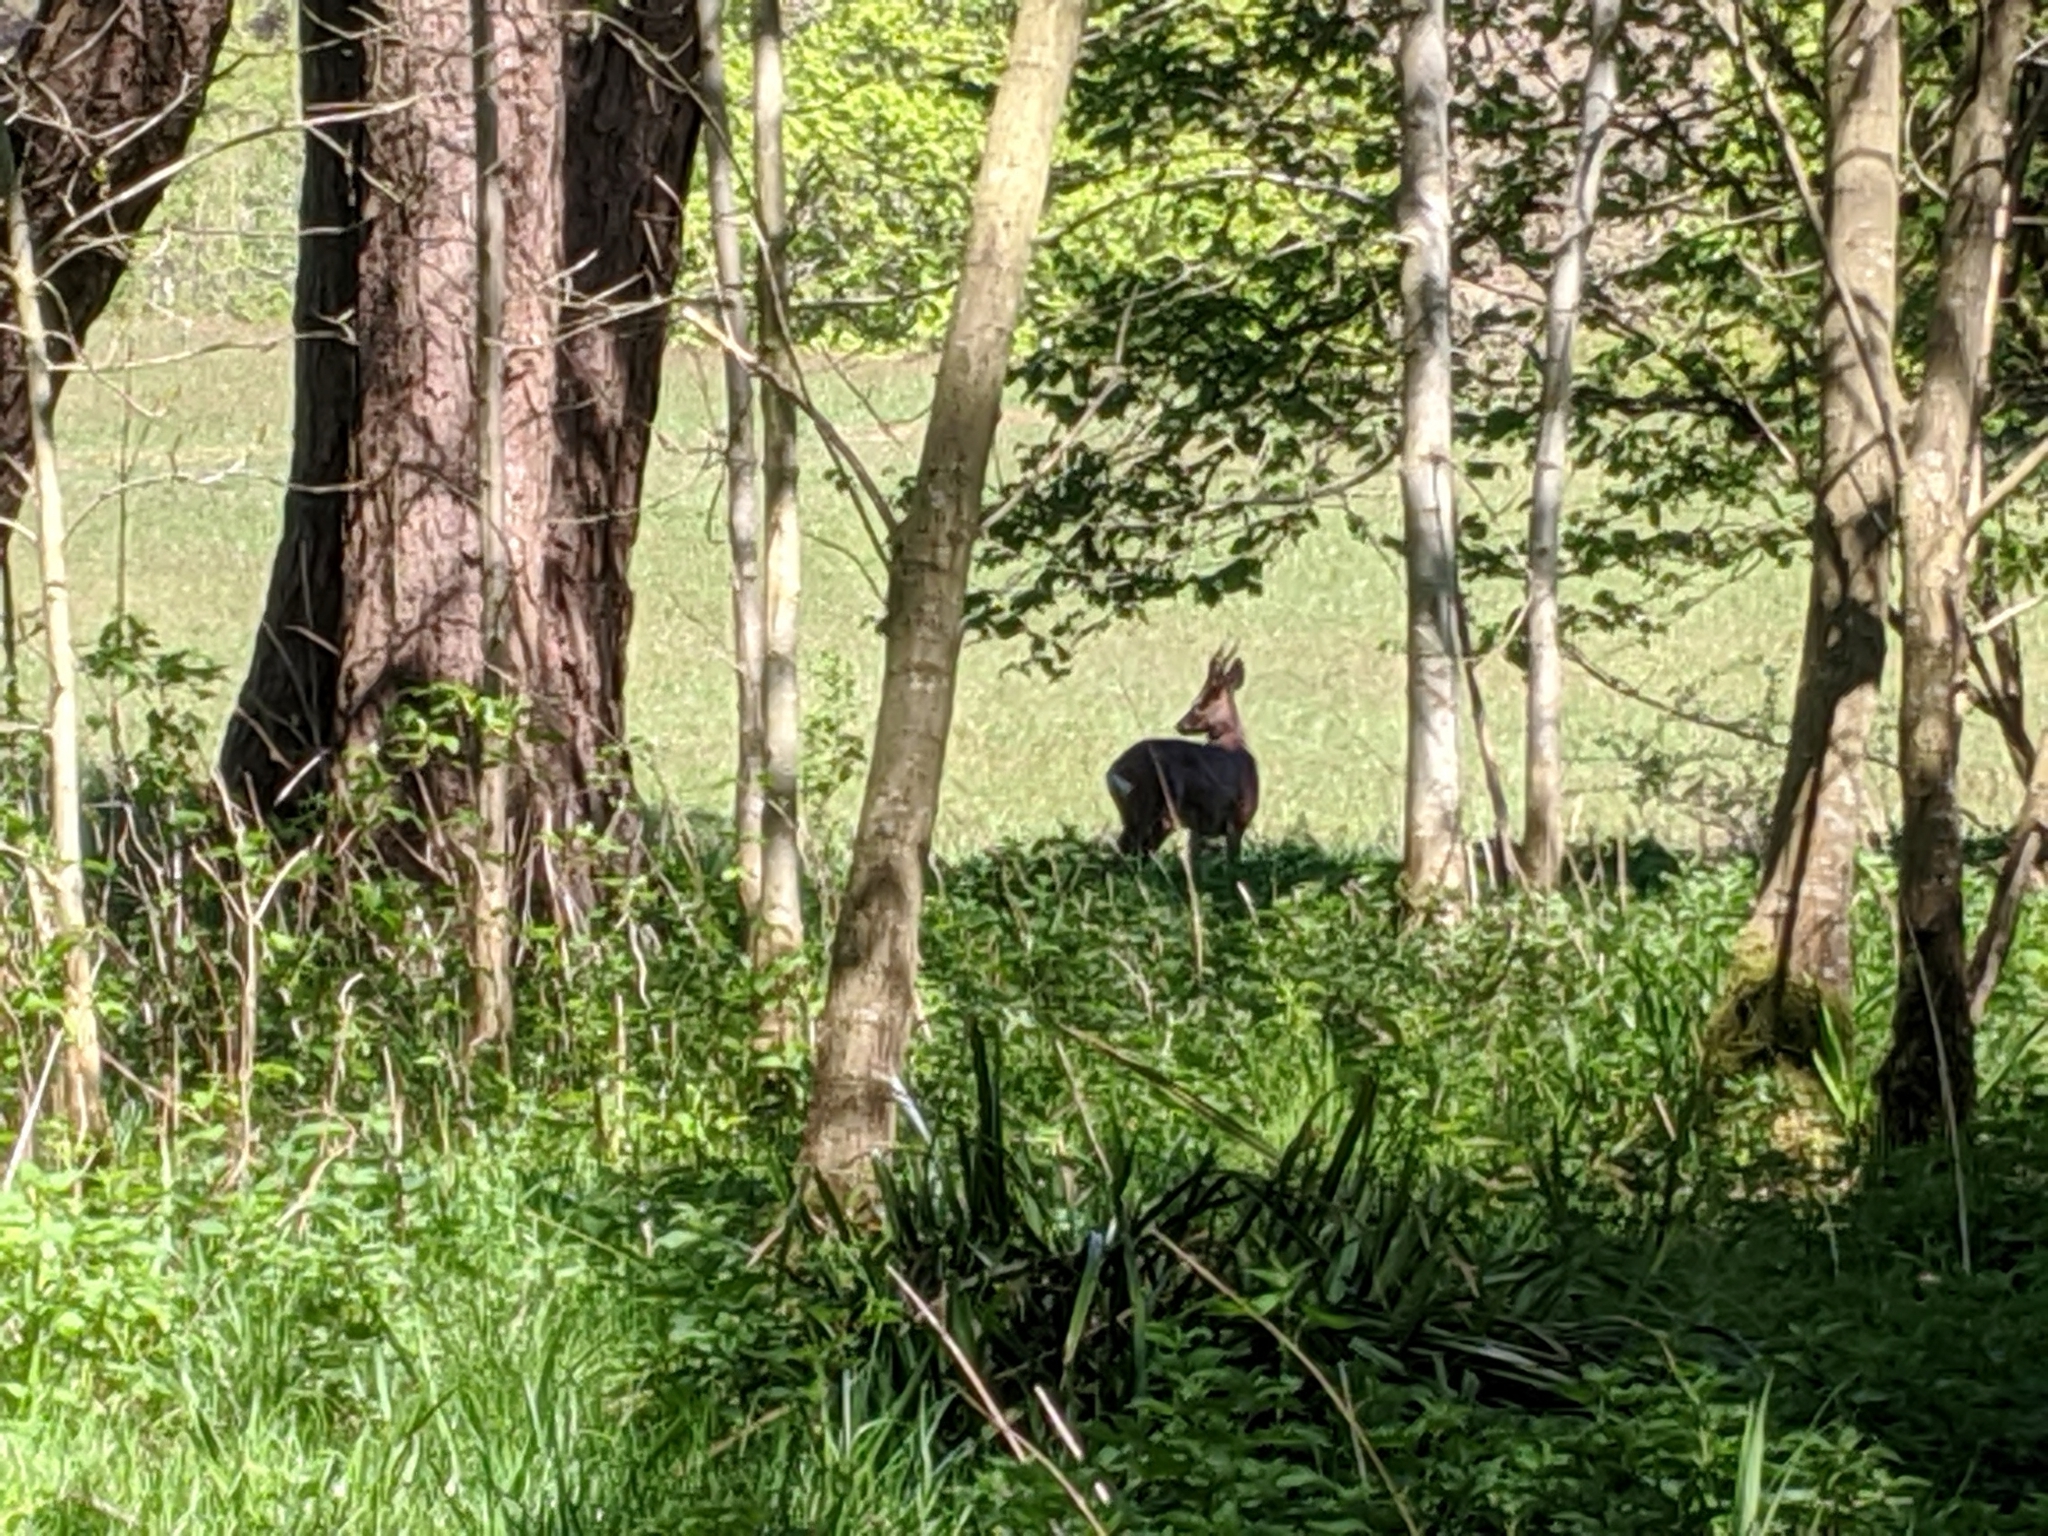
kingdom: Animalia
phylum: Chordata
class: Mammalia
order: Artiodactyla
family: Cervidae
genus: Capreolus
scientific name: Capreolus capreolus
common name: Western roe deer
